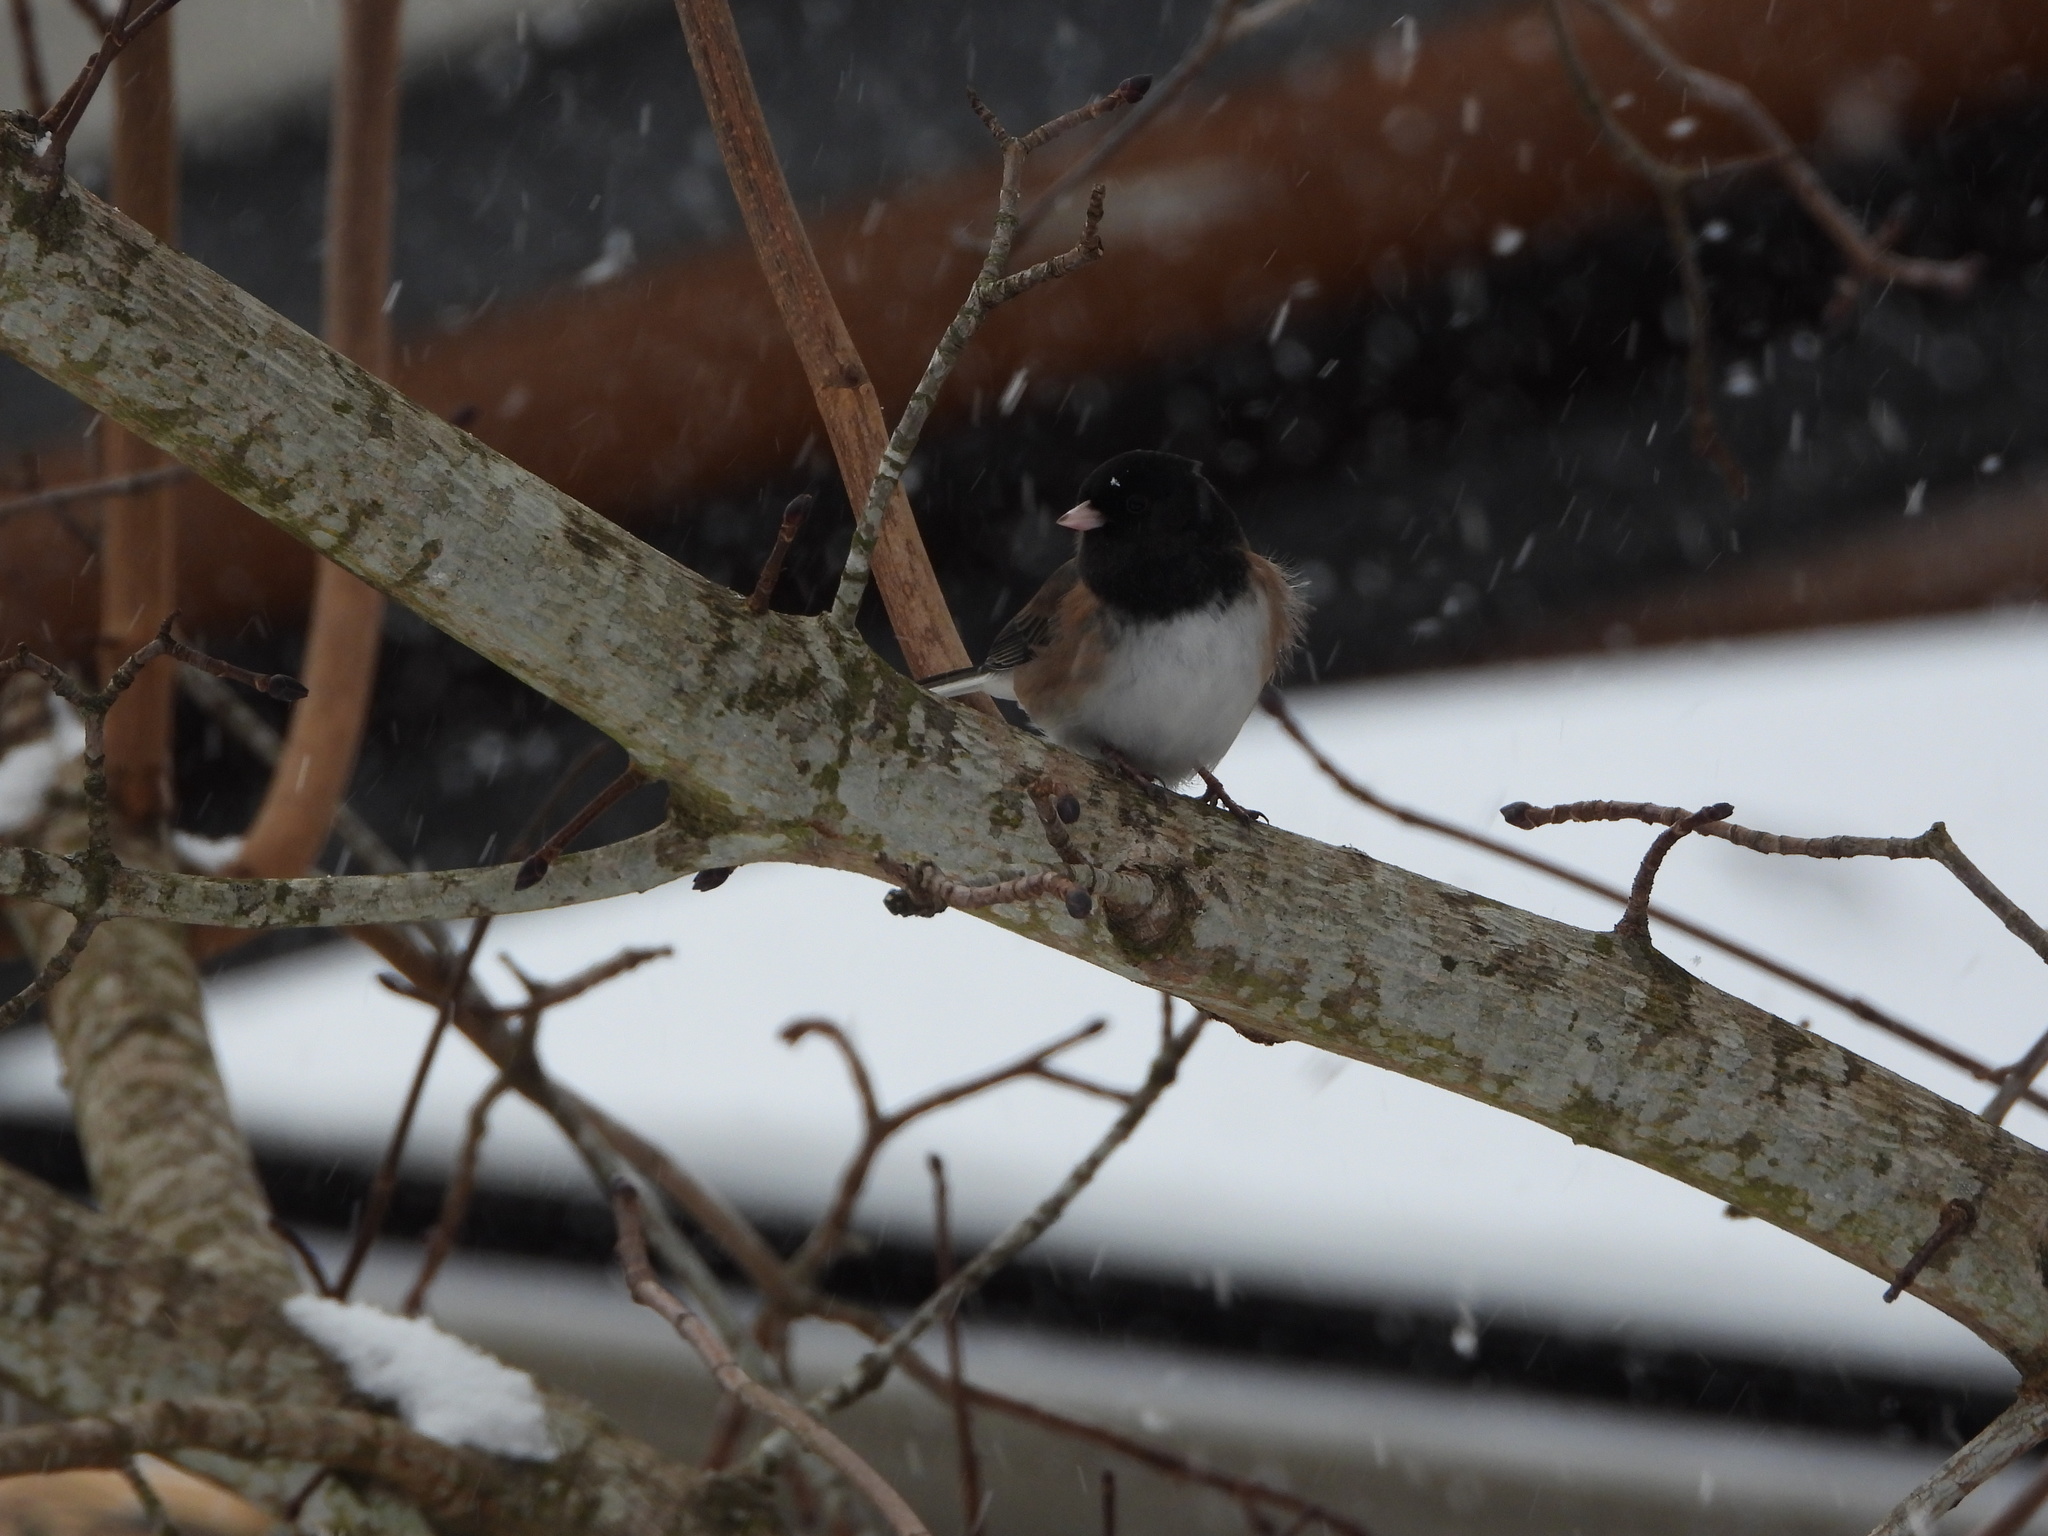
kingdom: Animalia
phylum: Chordata
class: Aves
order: Passeriformes
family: Passerellidae
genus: Junco
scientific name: Junco hyemalis
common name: Dark-eyed junco
